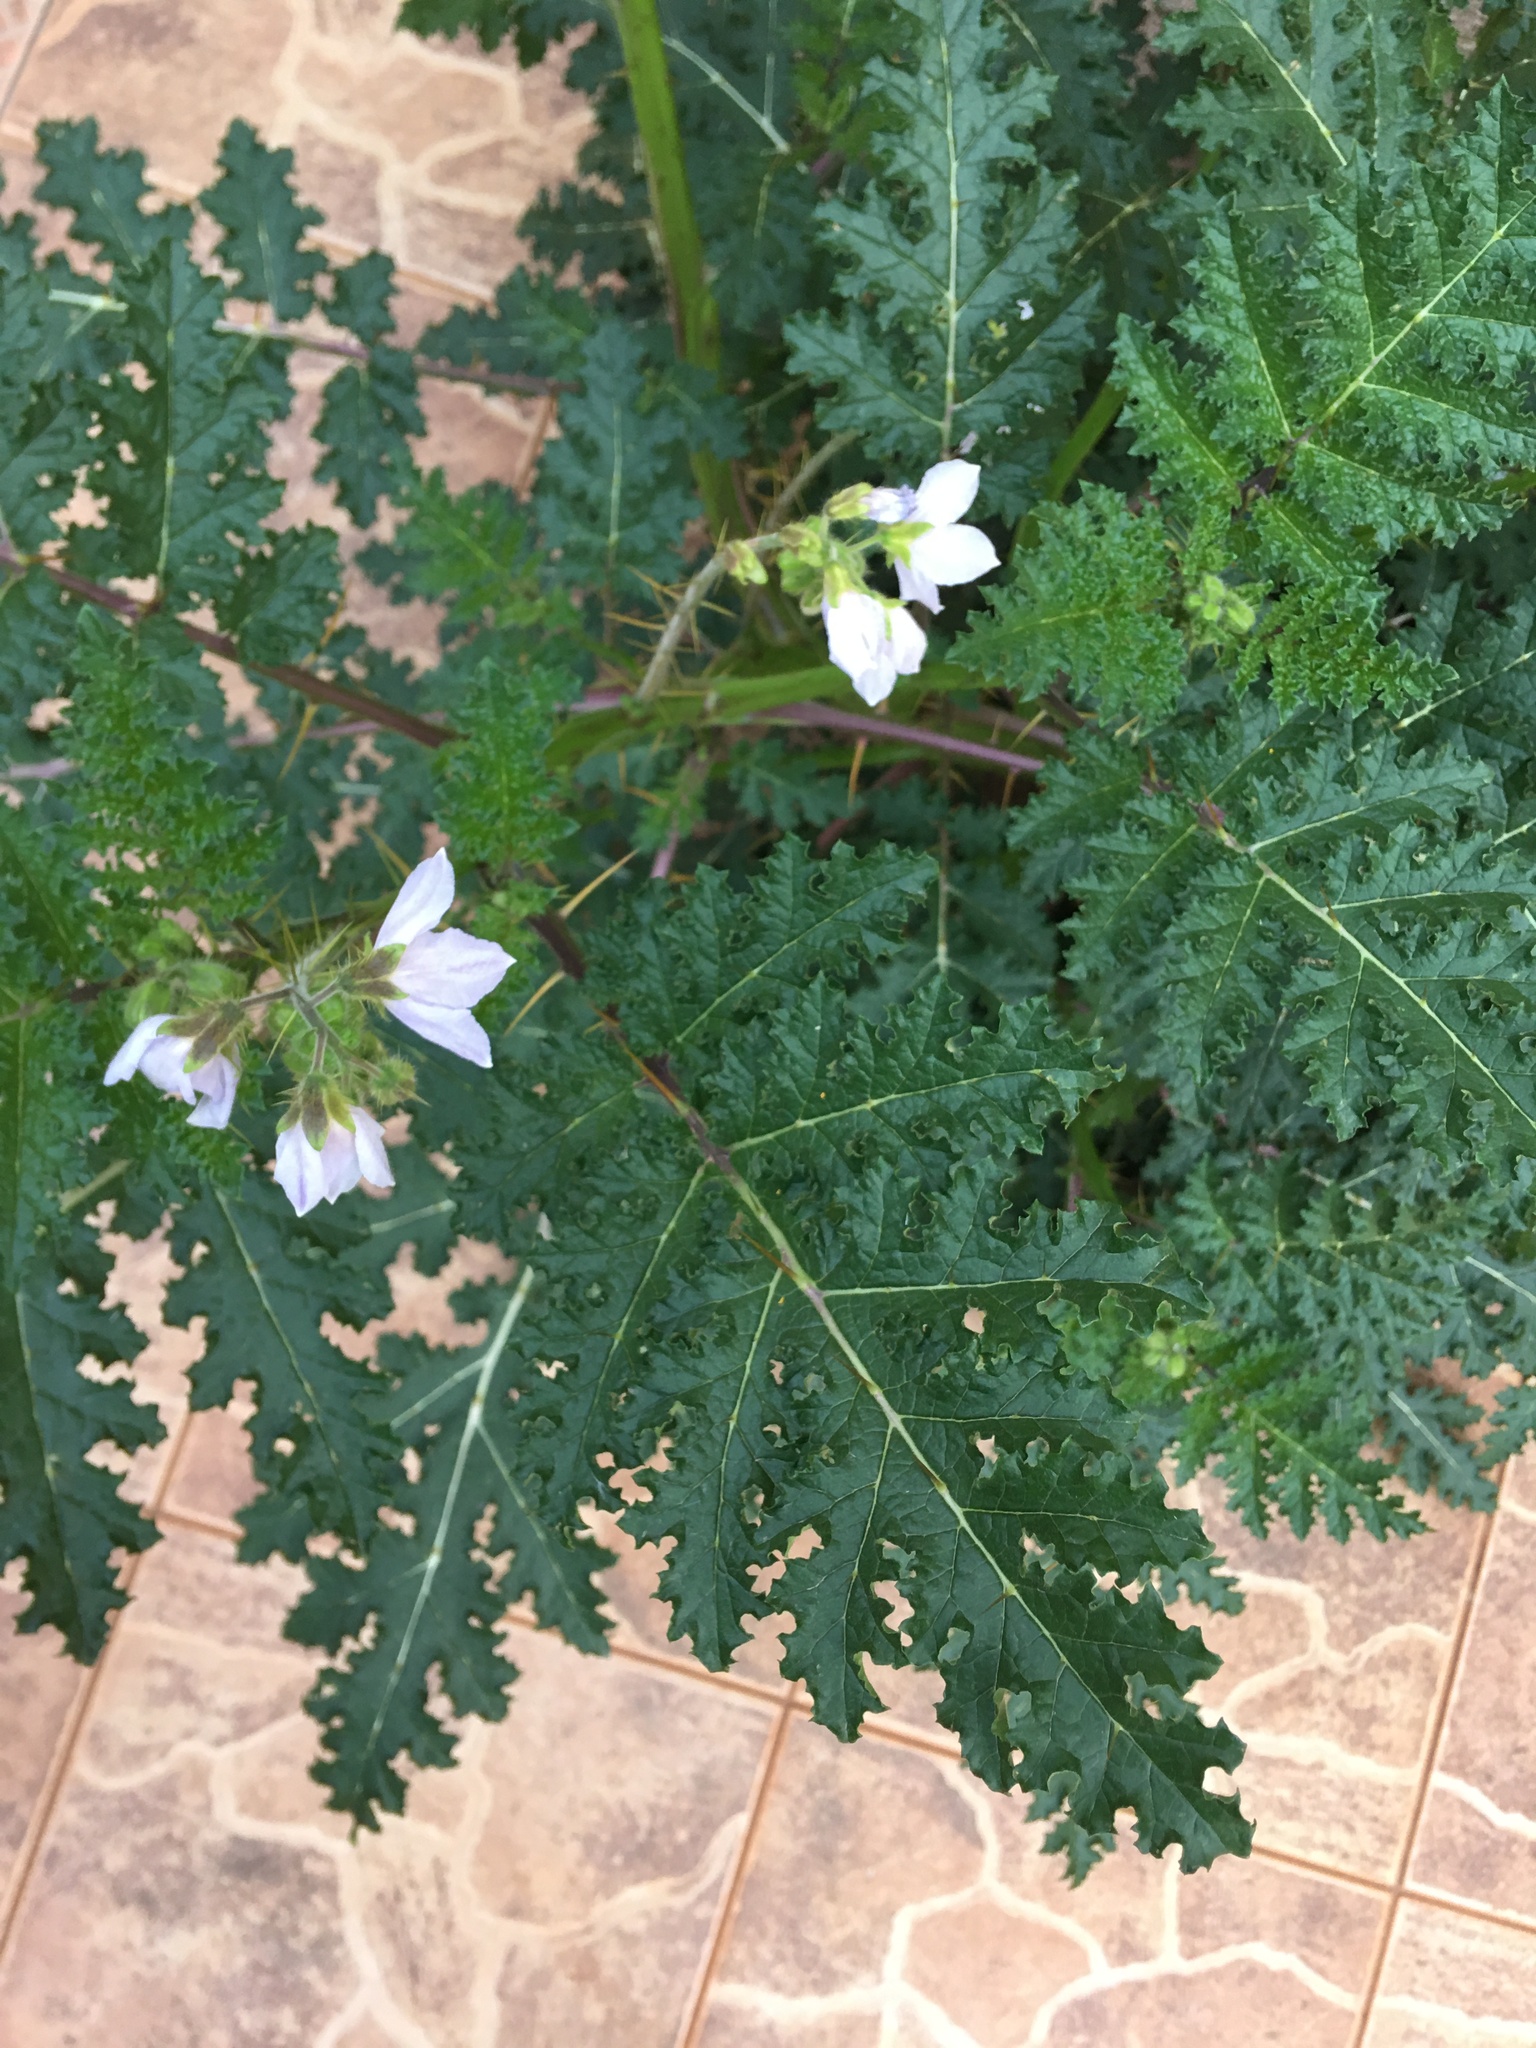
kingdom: Plantae
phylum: Tracheophyta
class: Magnoliopsida
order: Solanales
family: Solanaceae
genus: Solanum
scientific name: Solanum sisymbriifolium
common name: Red buffalo-bur
